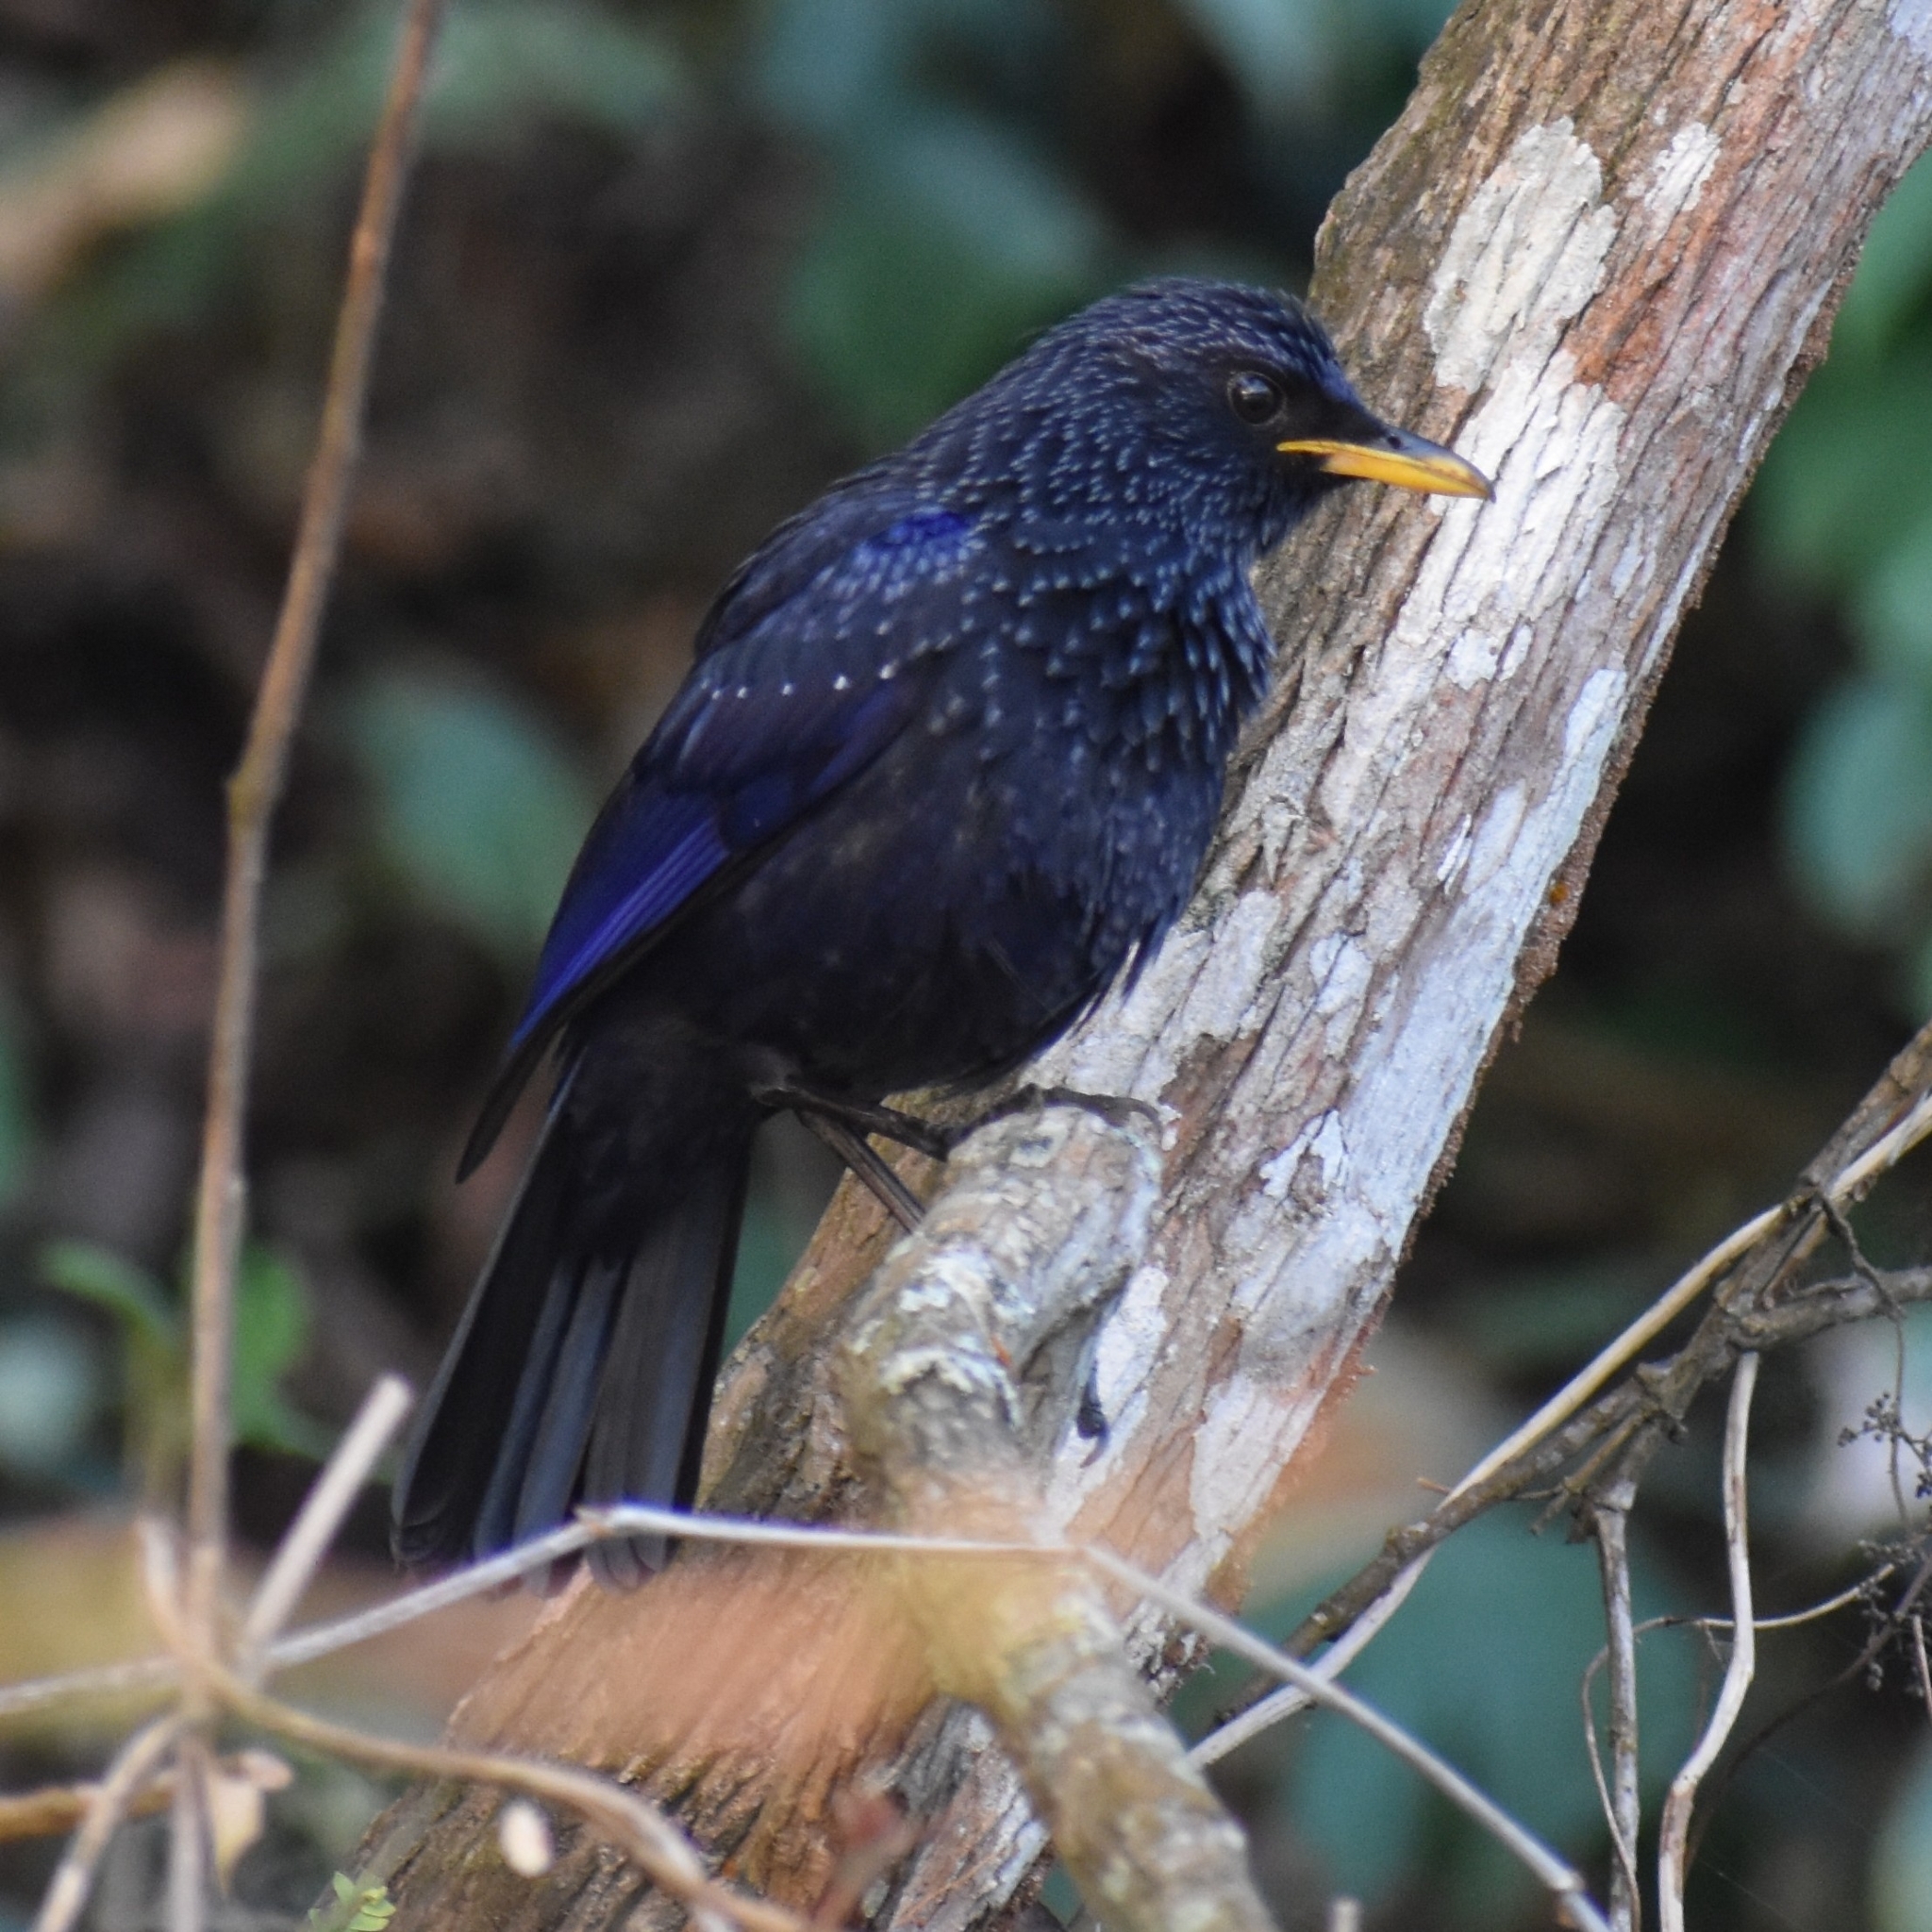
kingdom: Animalia
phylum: Chordata
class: Aves
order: Passeriformes
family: Muscicapidae
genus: Myophonus
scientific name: Myophonus caeruleus
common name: Blue whistling-thrush
